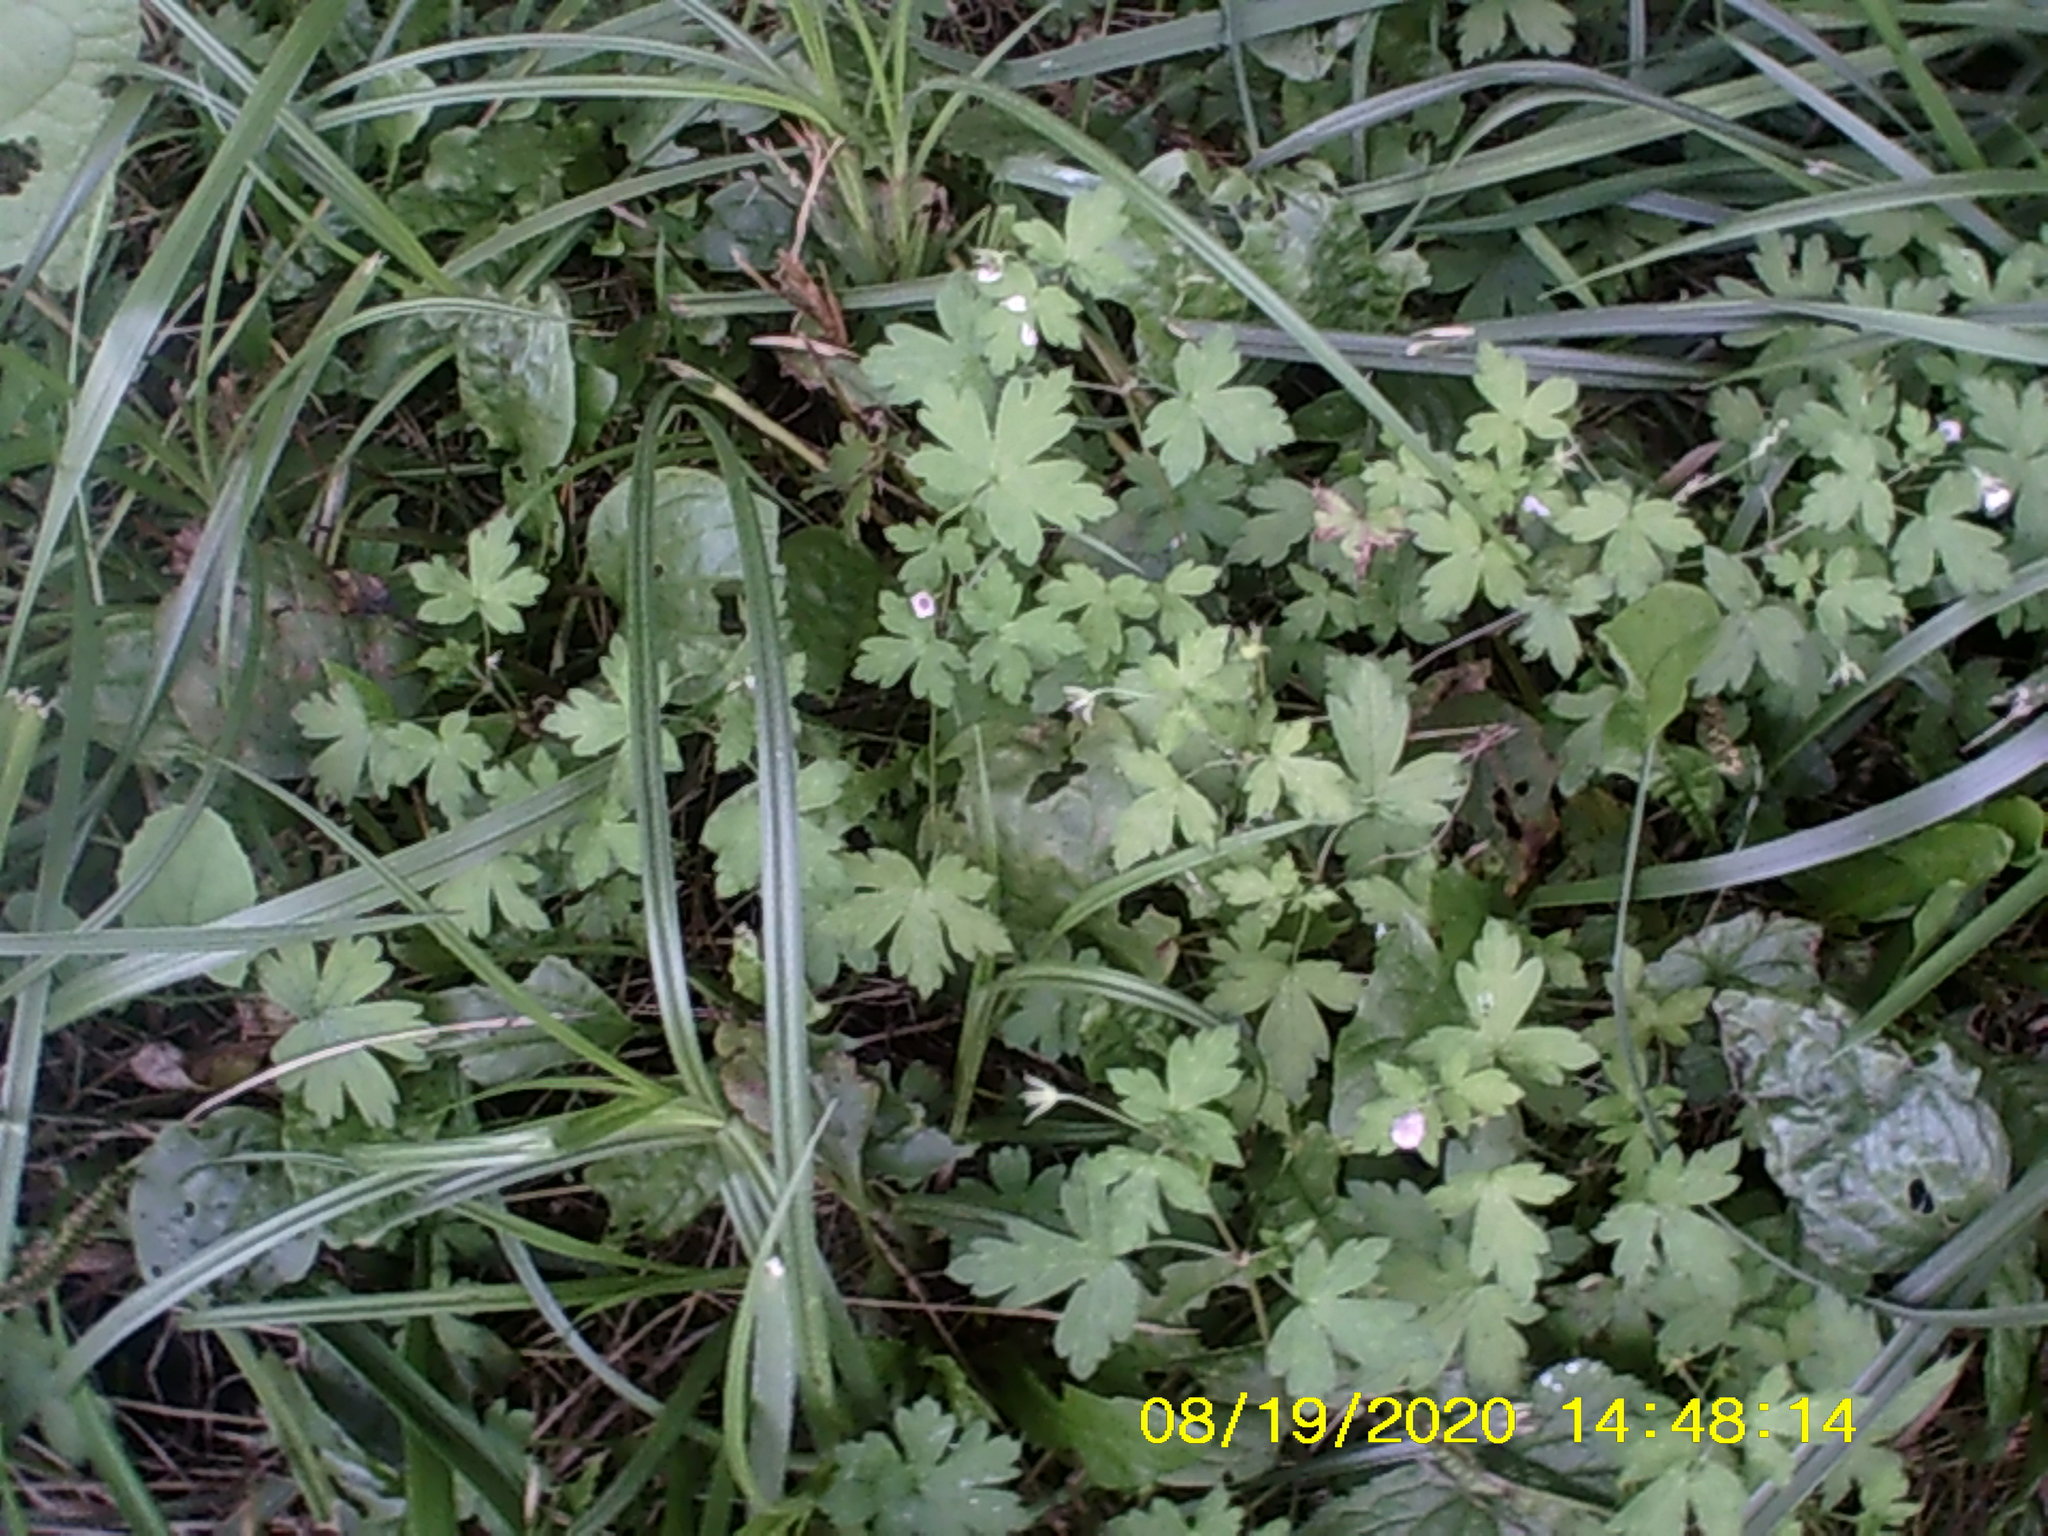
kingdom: Plantae
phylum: Tracheophyta
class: Magnoliopsida
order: Geraniales
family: Geraniaceae
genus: Geranium
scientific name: Geranium sibiricum
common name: Siberian crane's-bill
